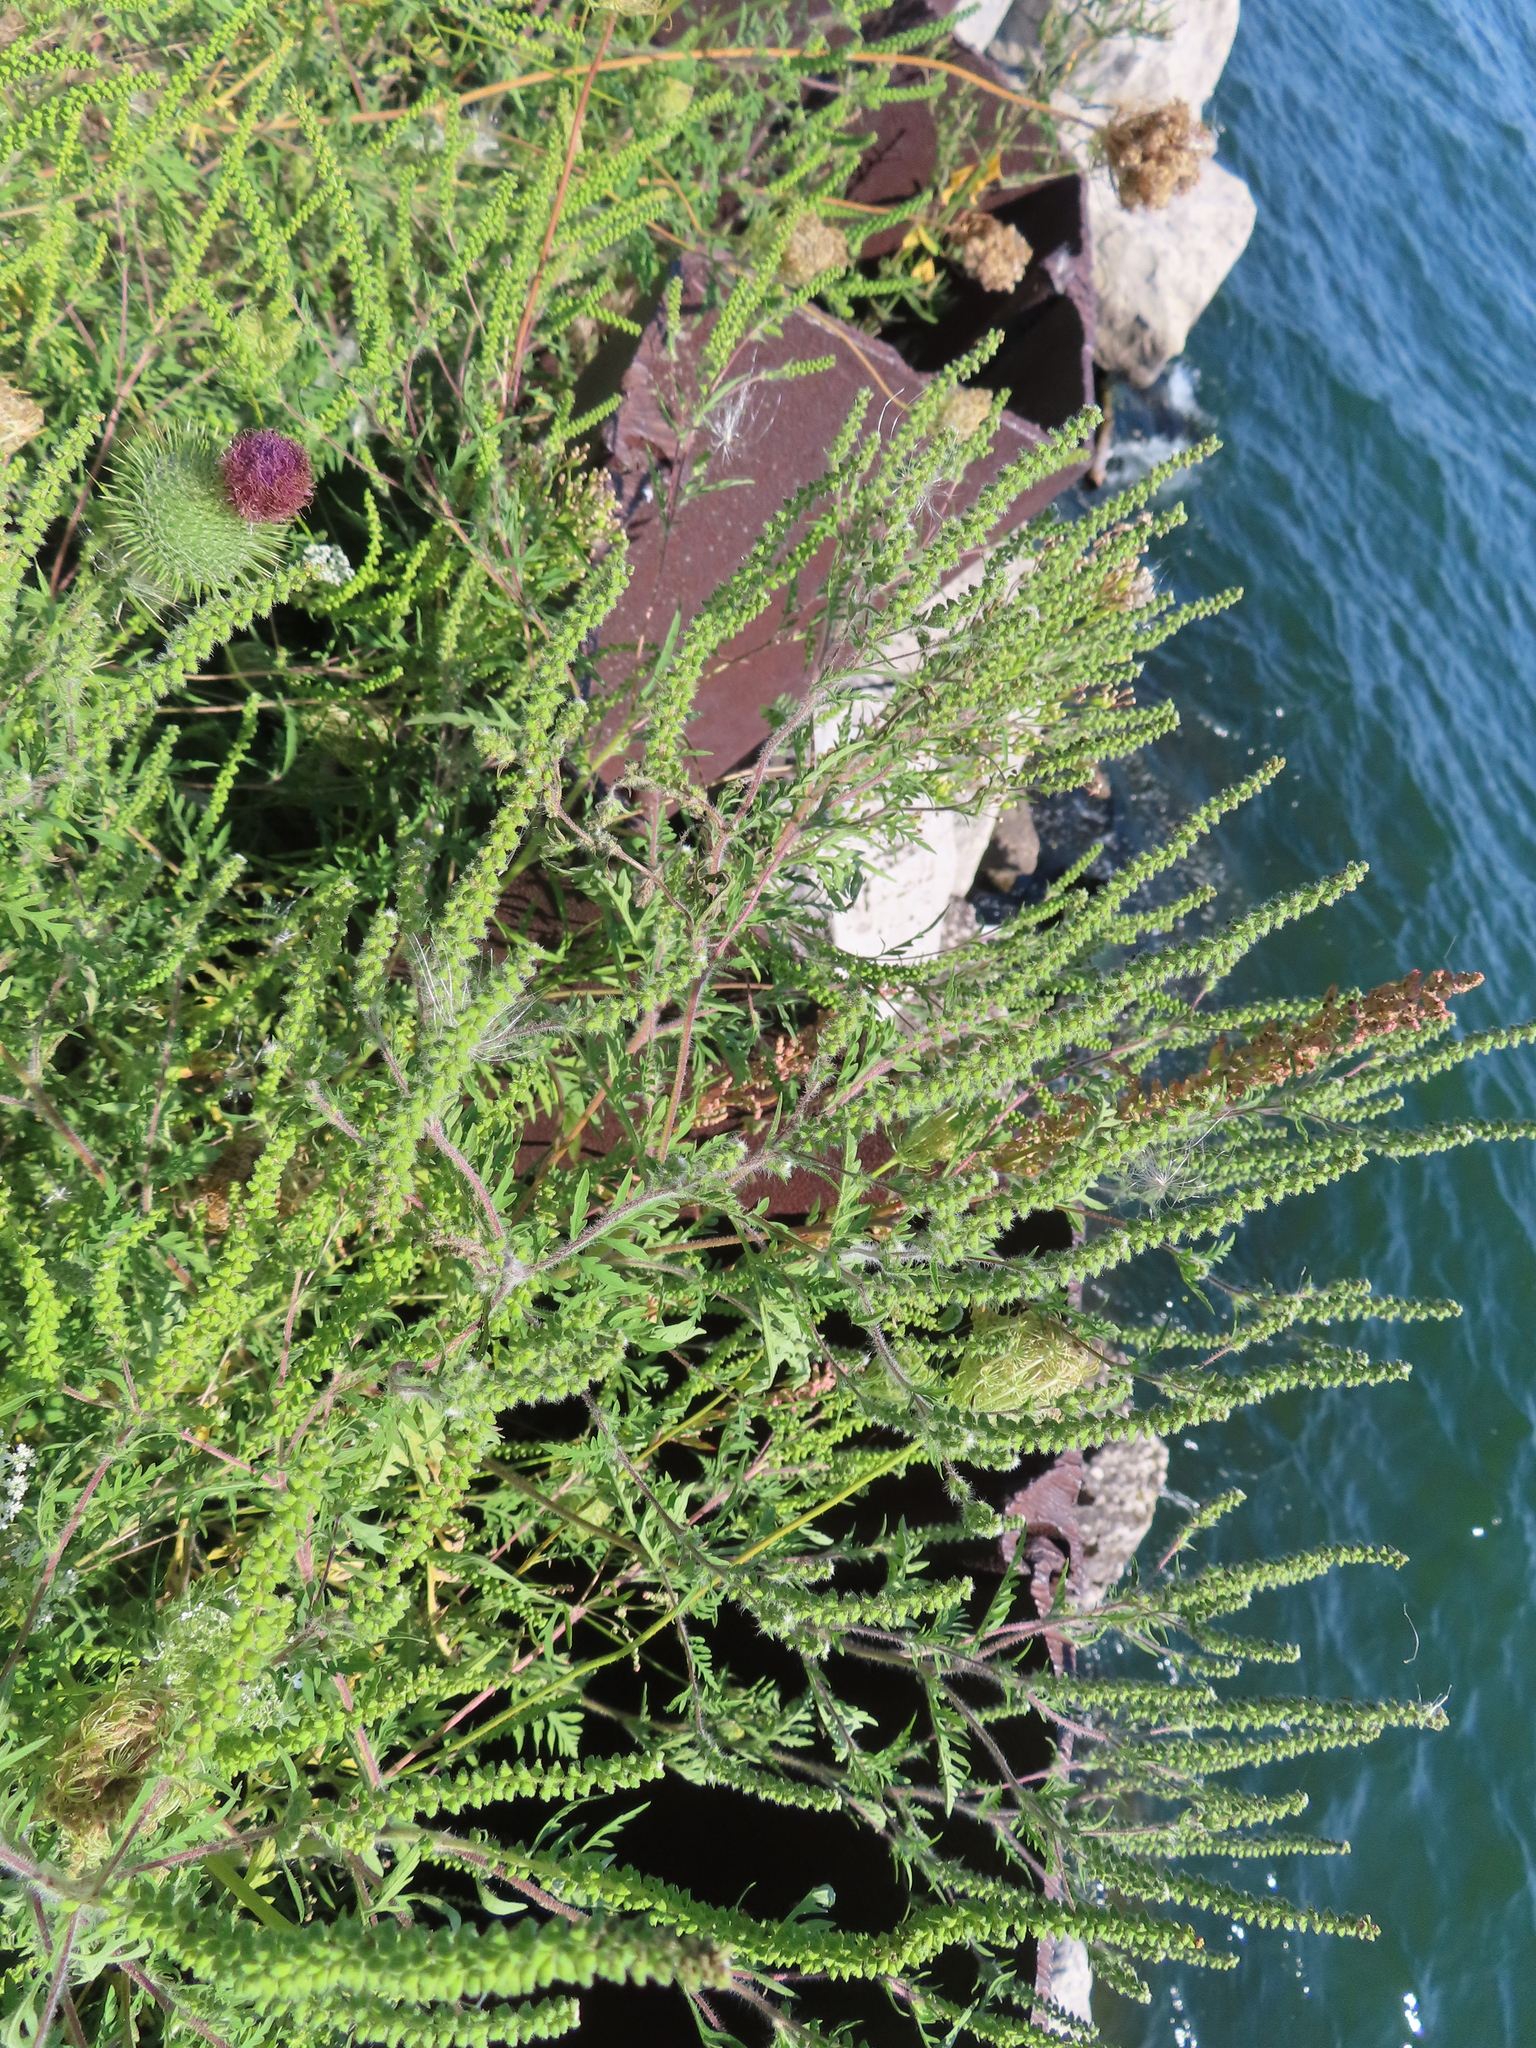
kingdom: Plantae
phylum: Tracheophyta
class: Magnoliopsida
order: Asterales
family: Asteraceae
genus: Ambrosia
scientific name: Ambrosia artemisiifolia
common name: Annual ragweed
